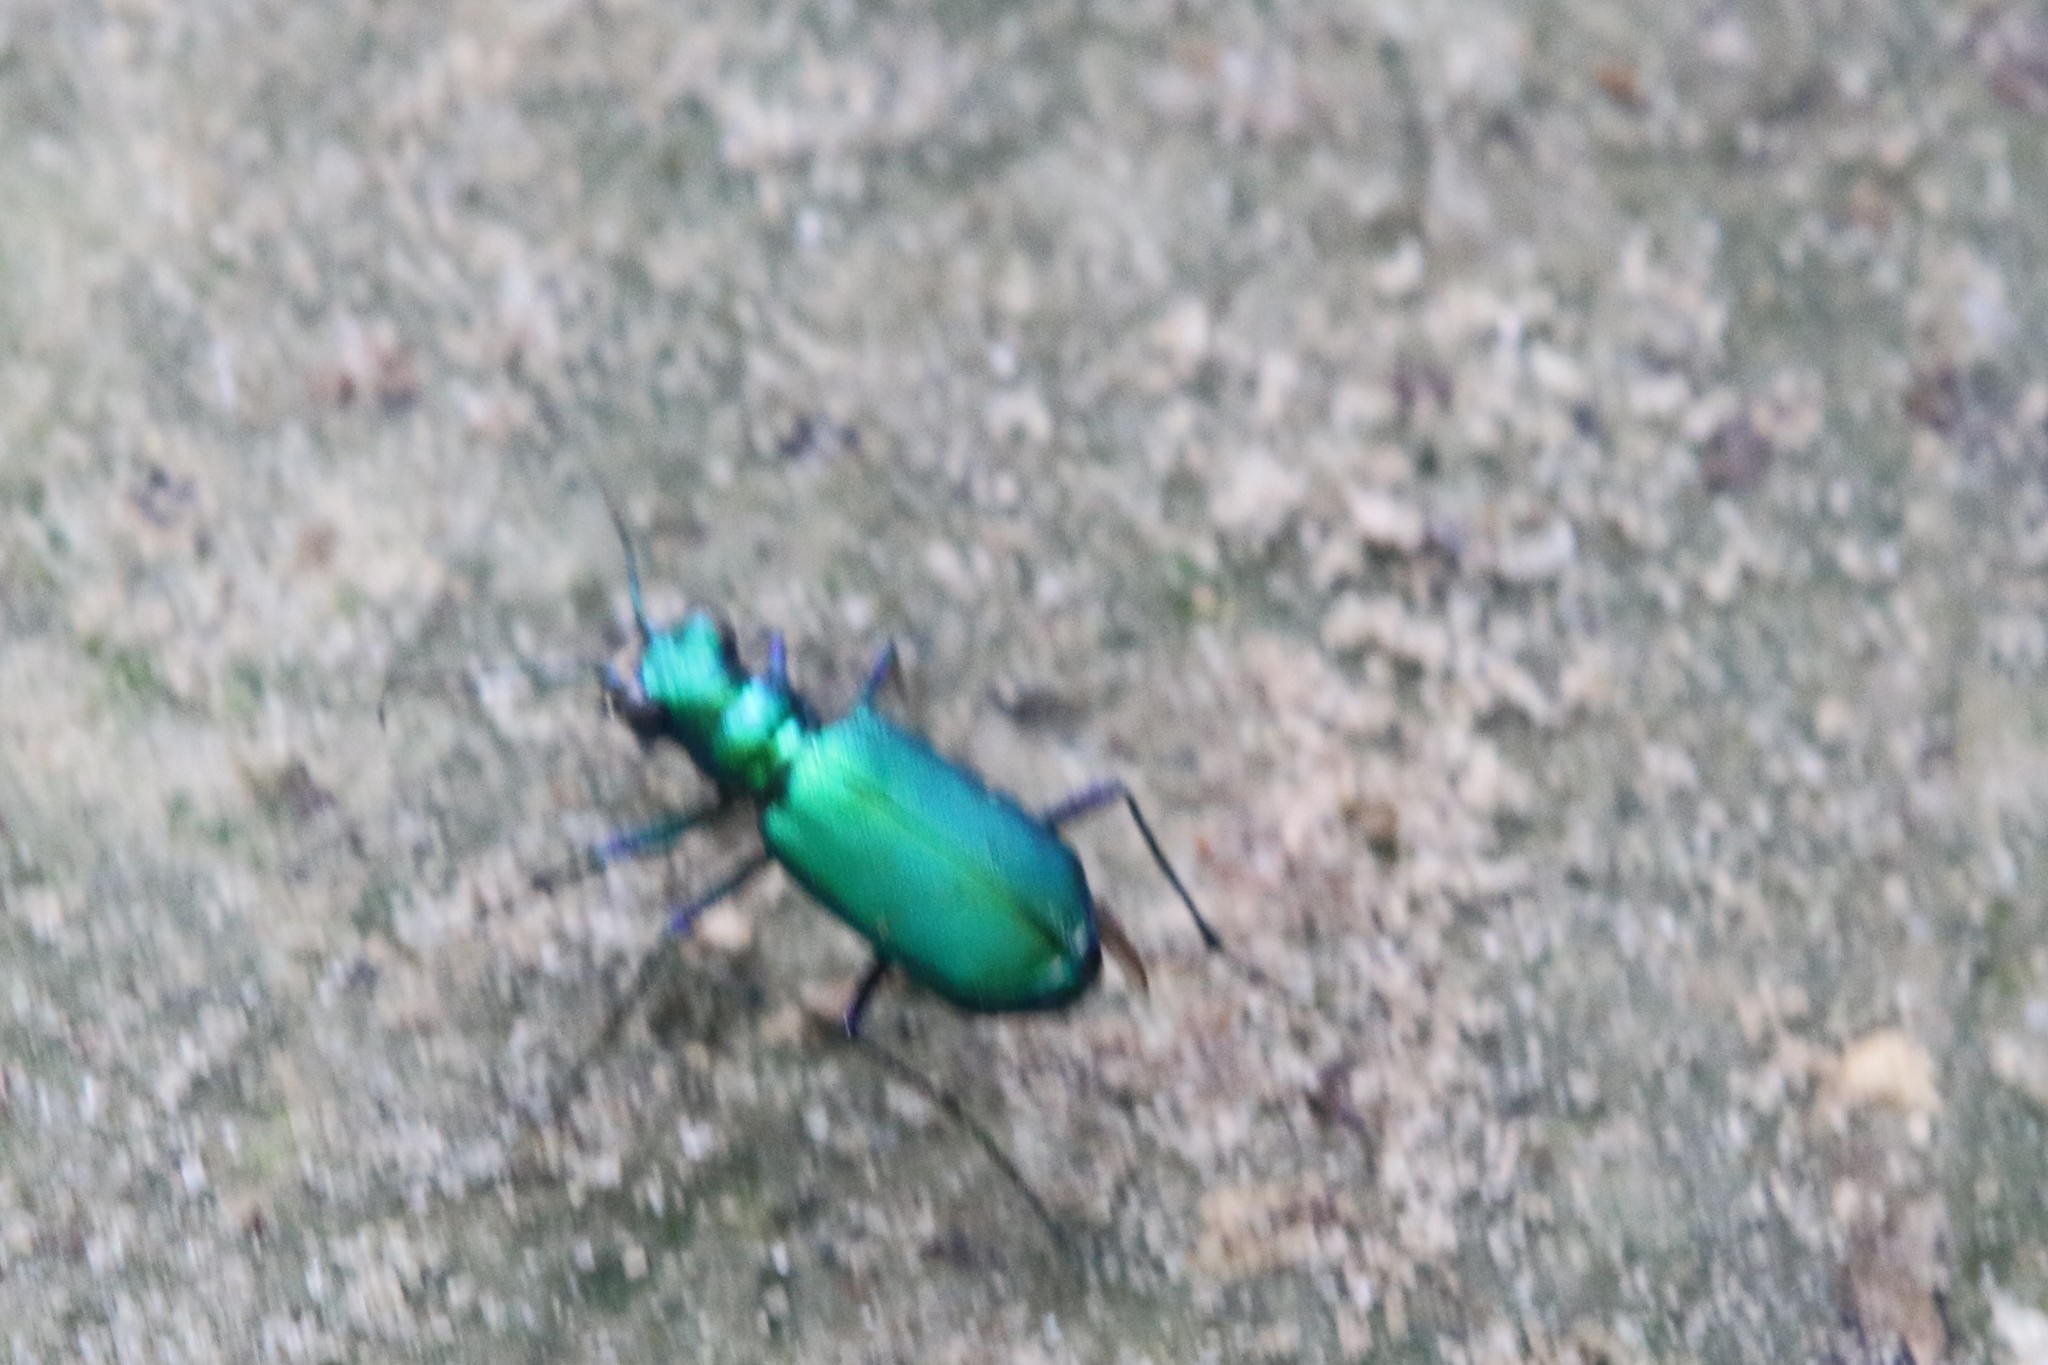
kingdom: Animalia
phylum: Arthropoda
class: Insecta
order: Coleoptera
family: Carabidae
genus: Cicindela
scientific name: Cicindela sexguttata
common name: Six-spotted tiger beetle
